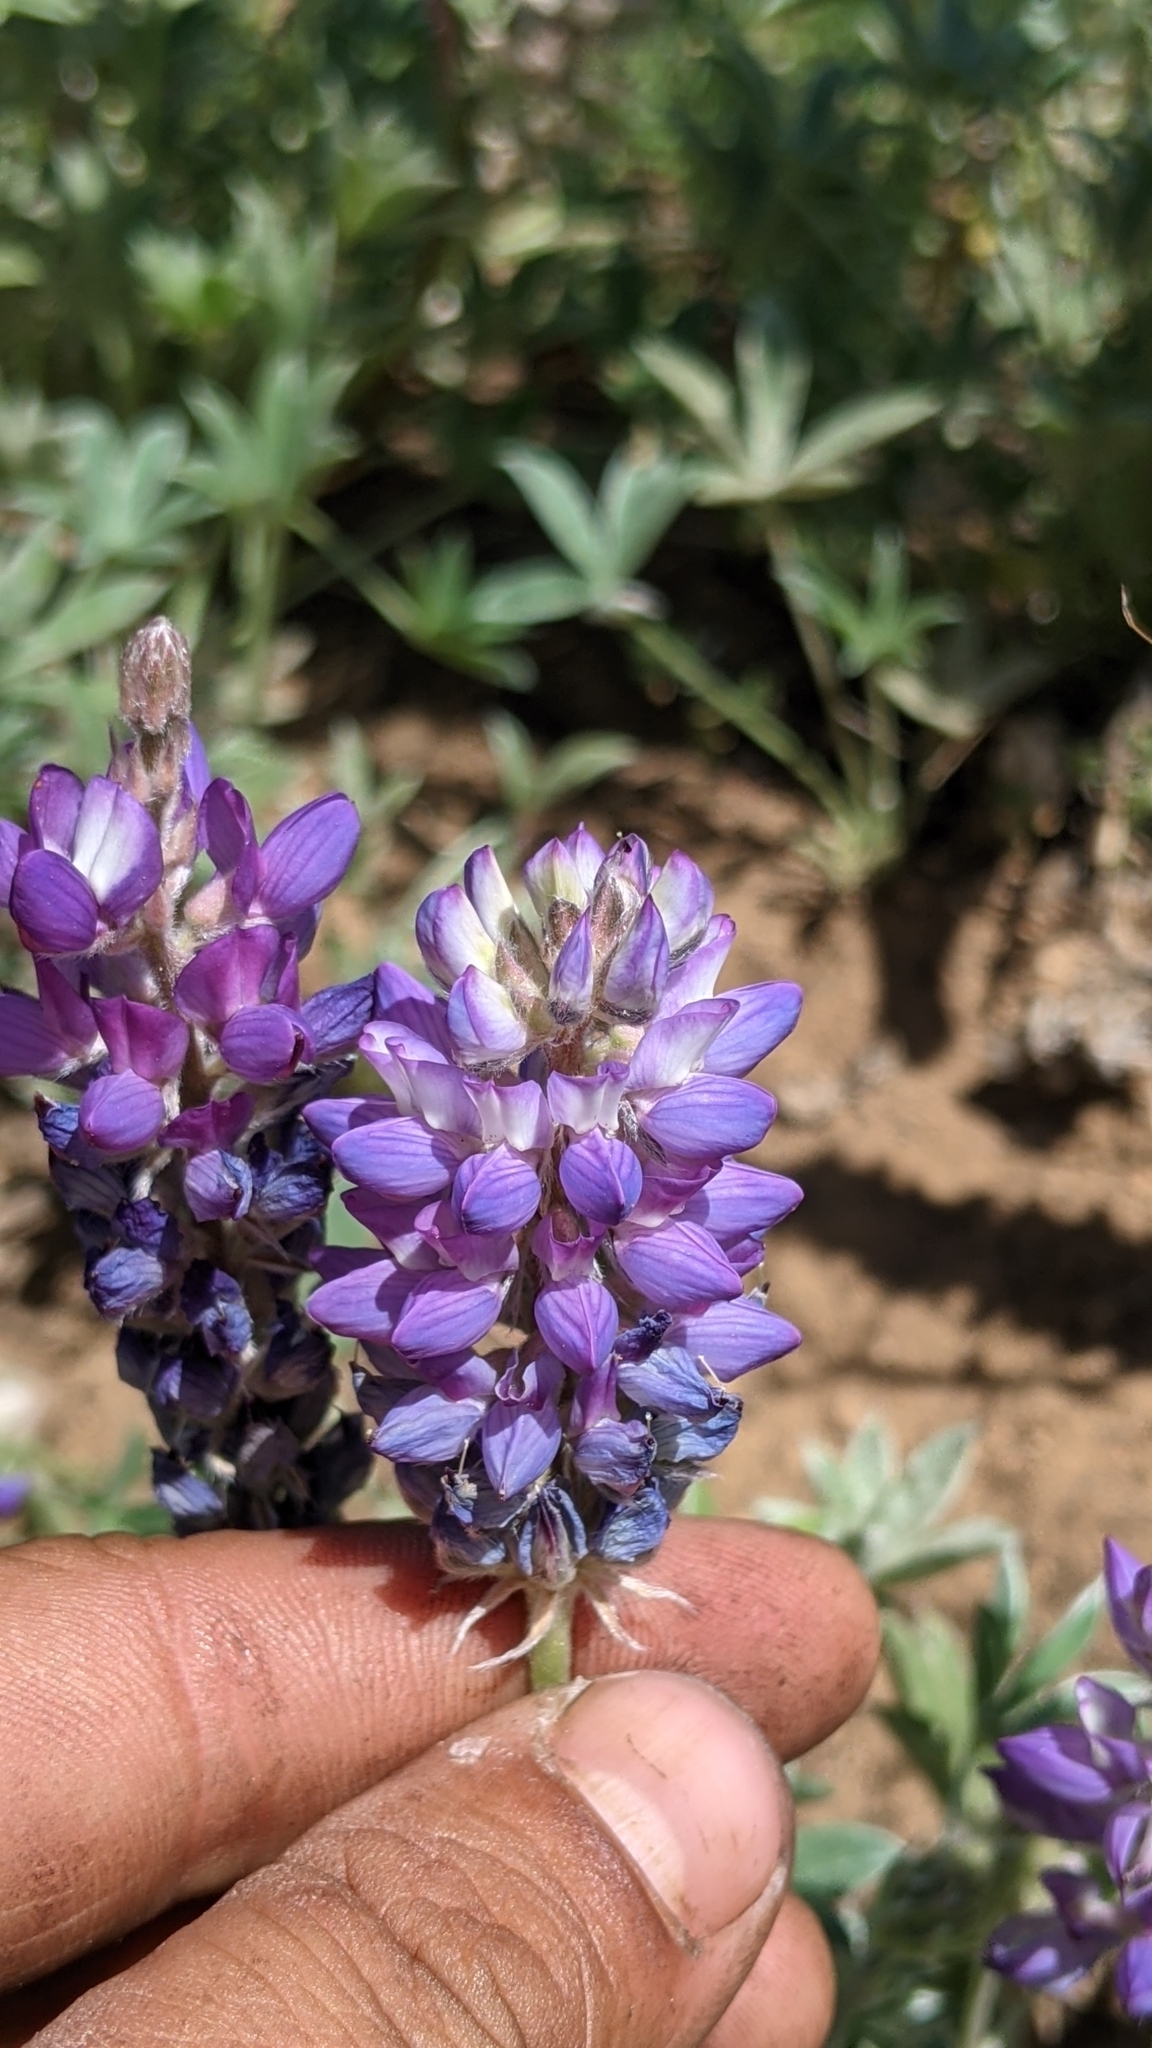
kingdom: Plantae
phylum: Tracheophyta
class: Magnoliopsida
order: Fabales
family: Fabaceae
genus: Lupinus
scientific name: Lupinus lepidus
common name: Prairie lupine
